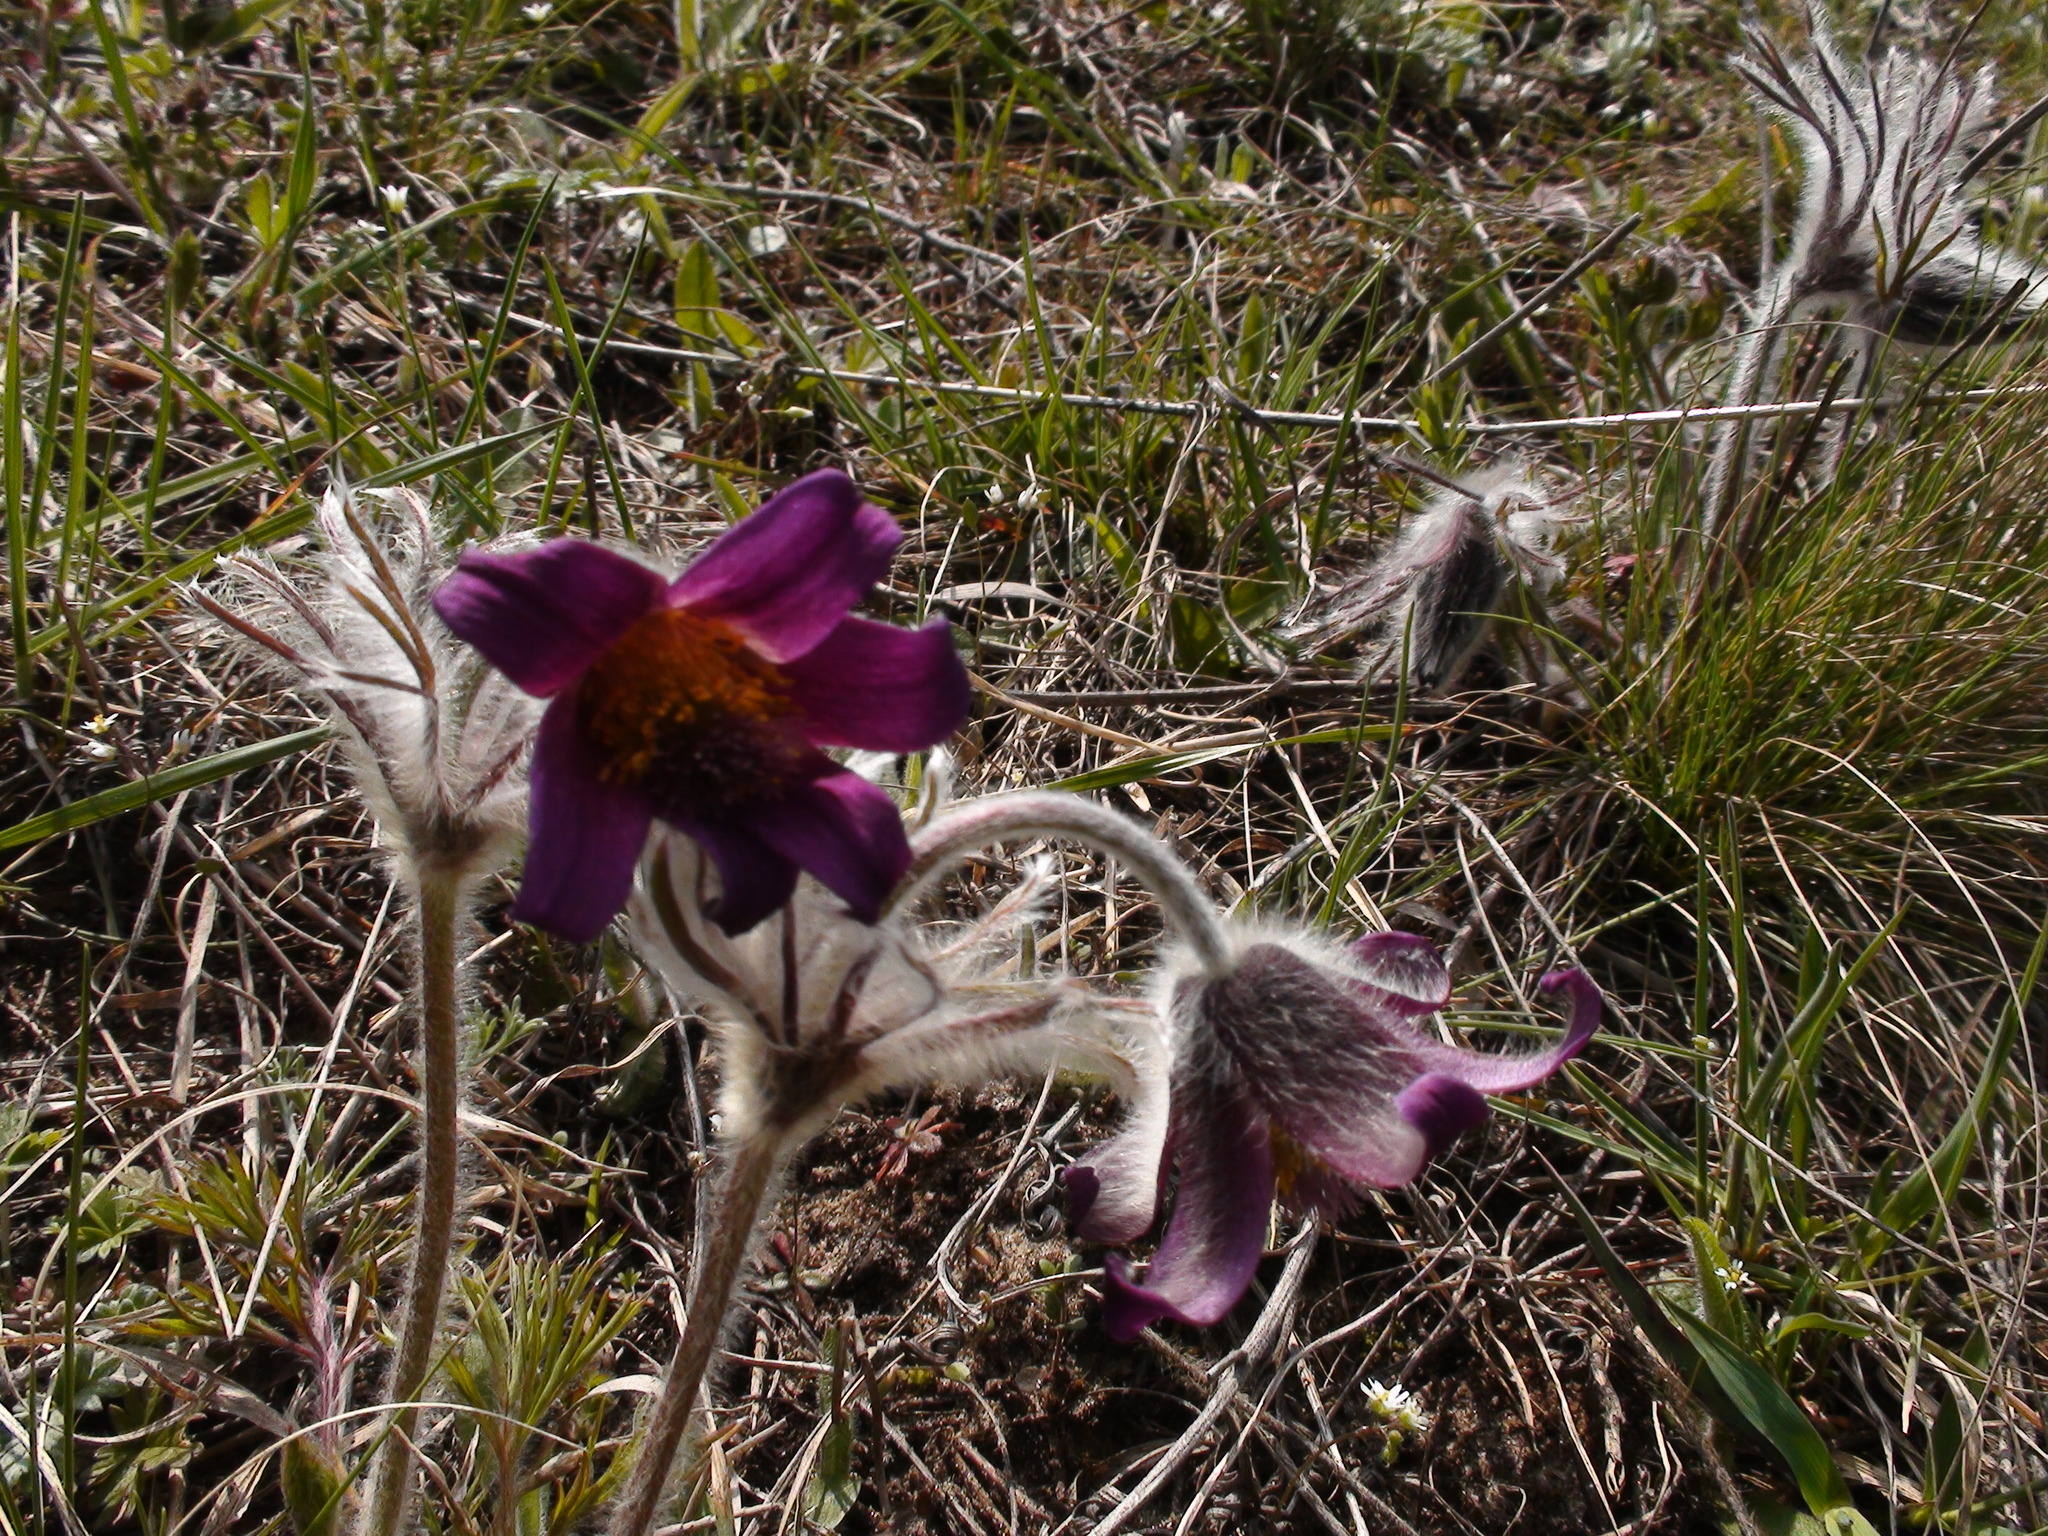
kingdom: Plantae
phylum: Tracheophyta
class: Magnoliopsida
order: Ranunculales
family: Ranunculaceae
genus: Pulsatilla
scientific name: Pulsatilla pratensis
